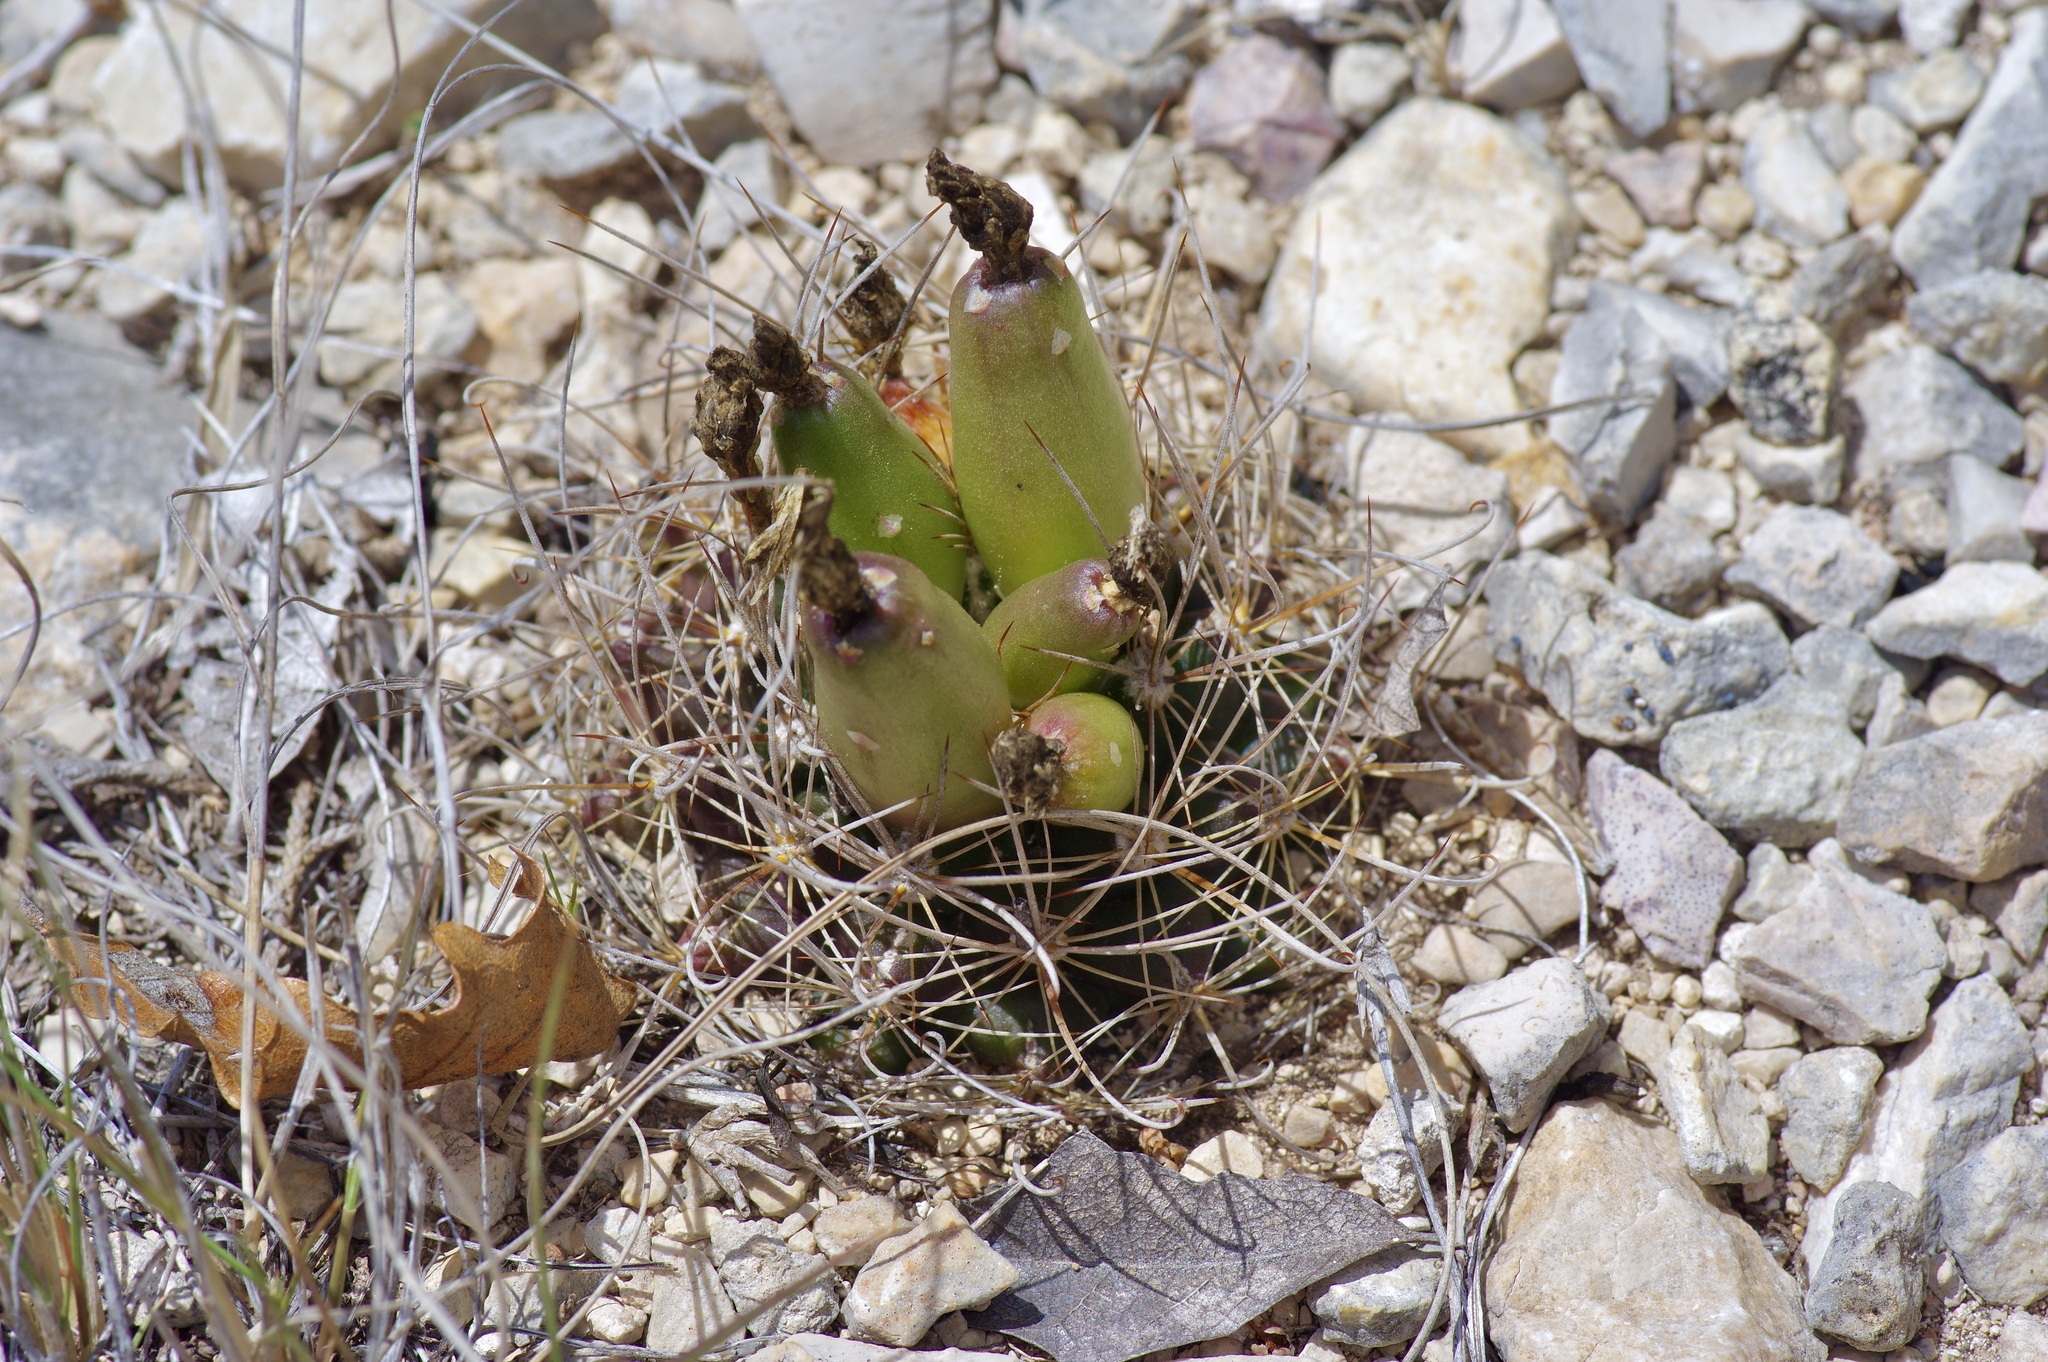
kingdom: Plantae
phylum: Tracheophyta
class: Magnoliopsida
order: Caryophyllales
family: Cactaceae
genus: Sclerocactus
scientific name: Sclerocactus brevihamatus
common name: Engelmann's fishhook cactus
